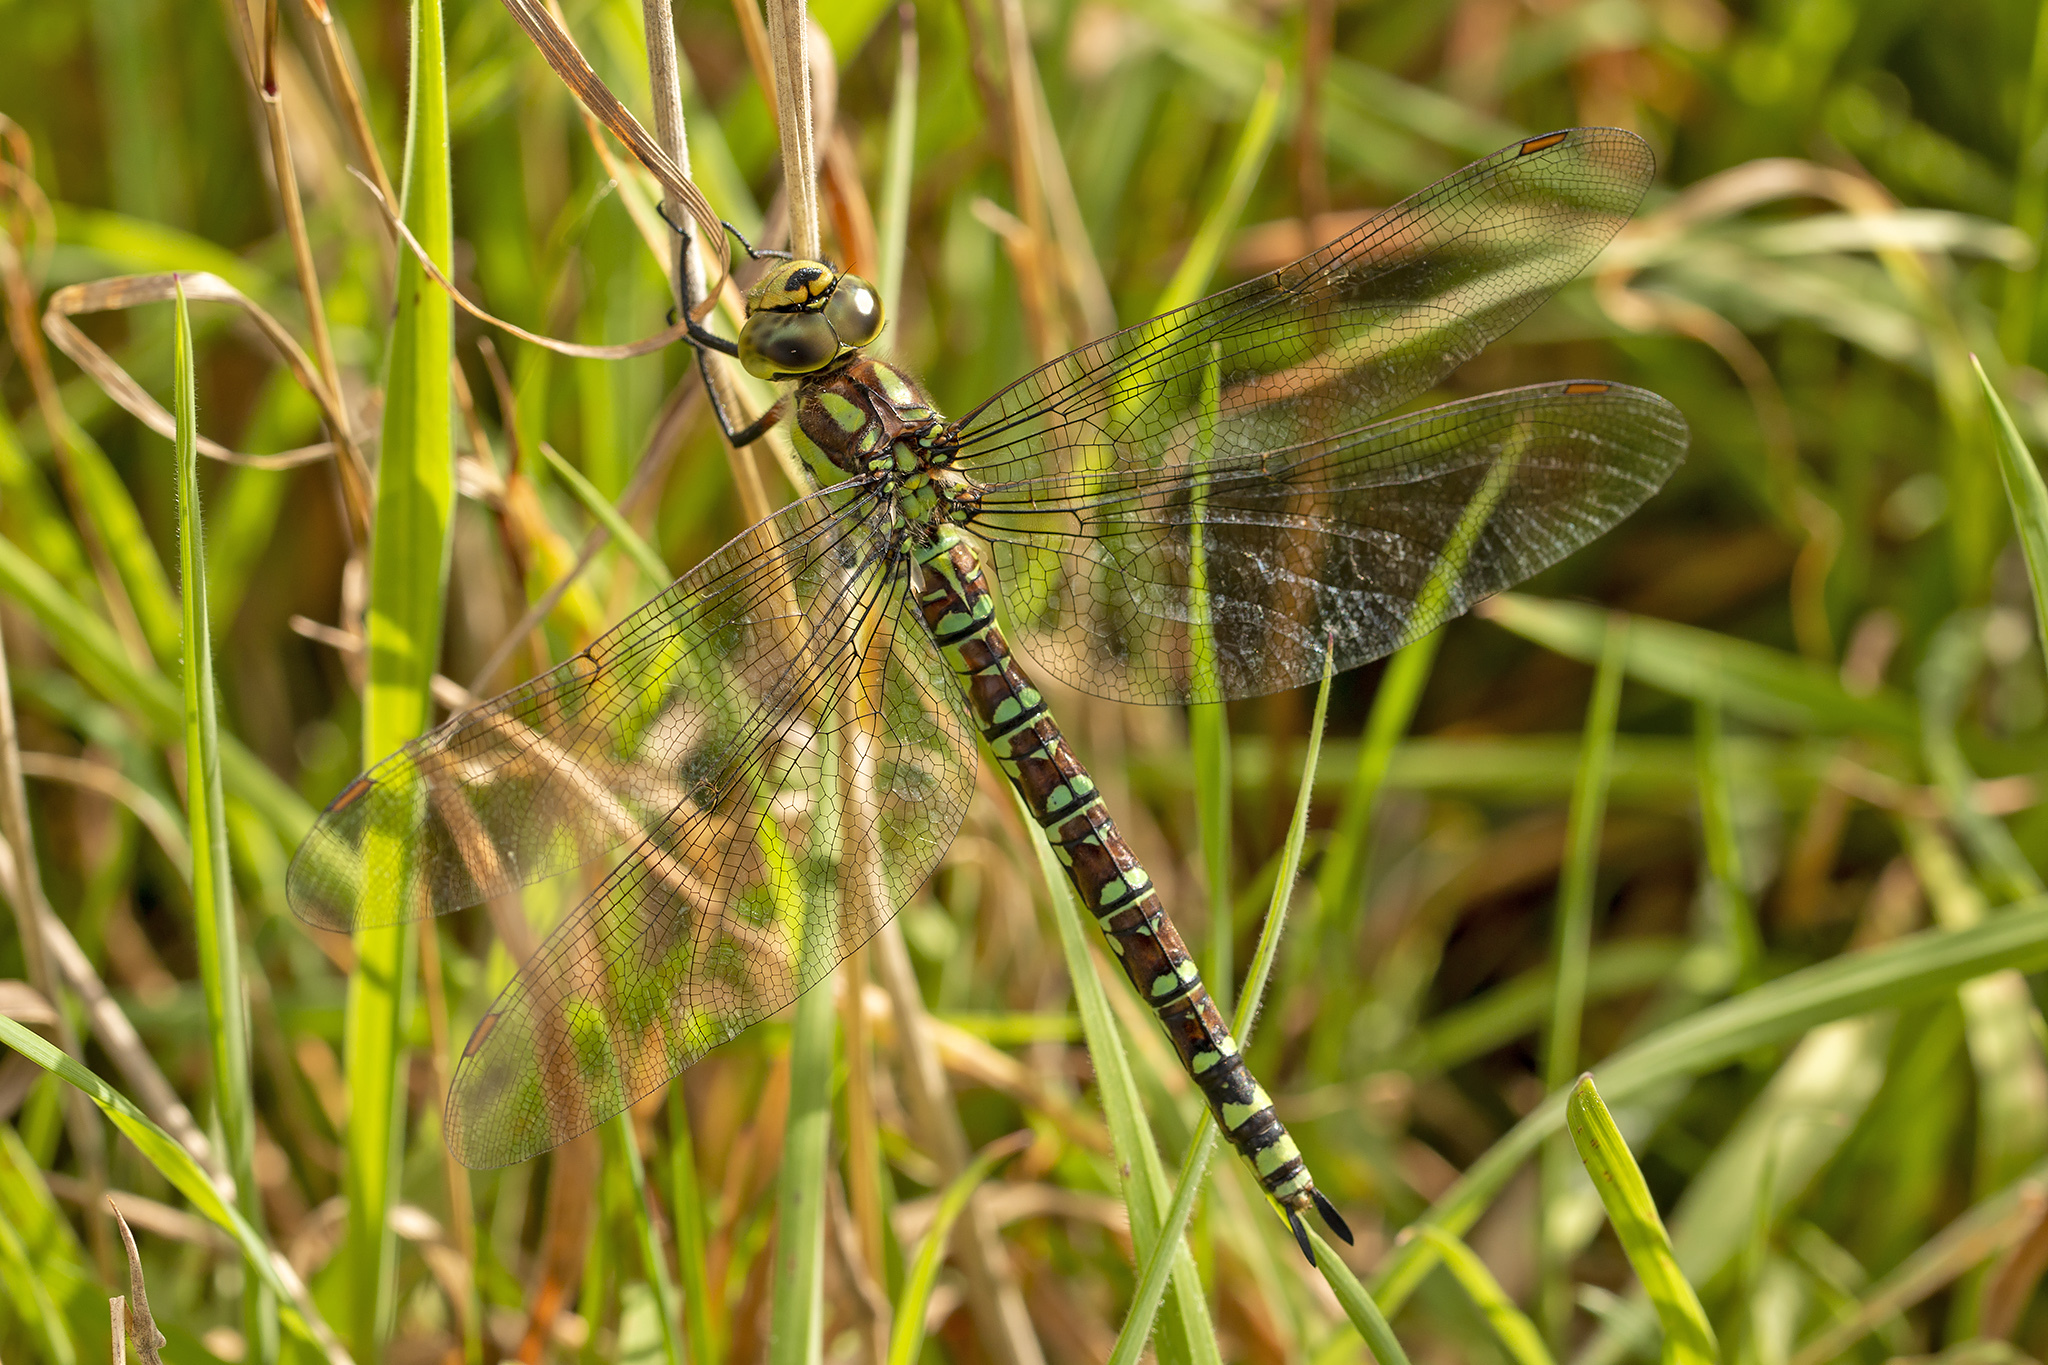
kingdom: Animalia
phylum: Arthropoda
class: Insecta
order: Odonata
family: Aeshnidae
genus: Aeshna
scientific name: Aeshna cyanea
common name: Southern hawker
